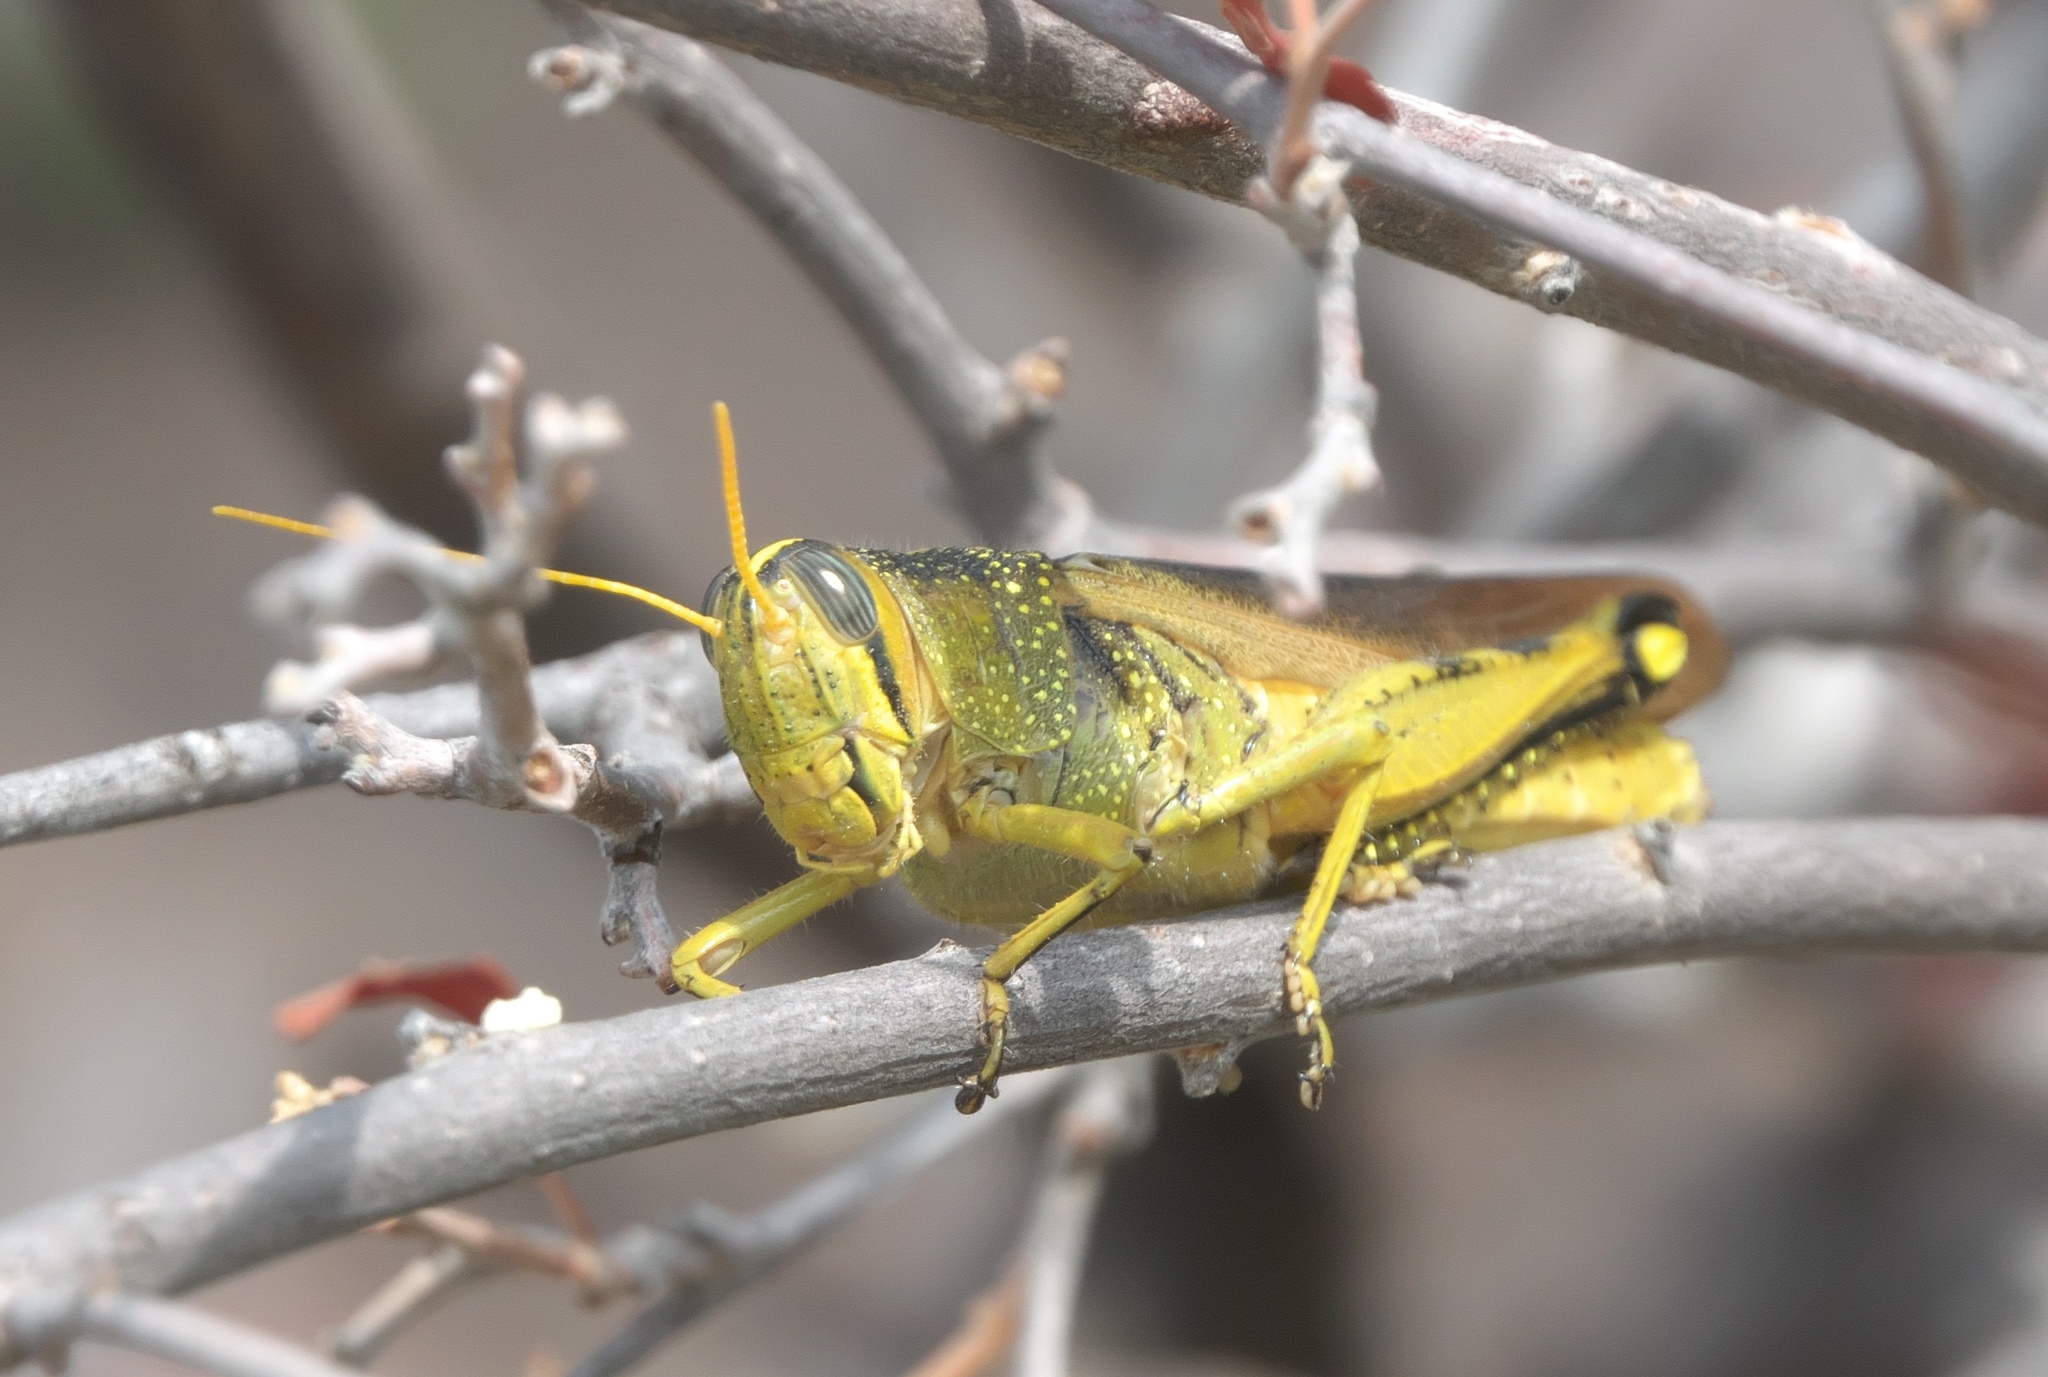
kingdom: Animalia
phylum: Arthropoda
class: Insecta
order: Orthoptera
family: Acrididae
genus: Schistocerca
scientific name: Schistocerca lineata
